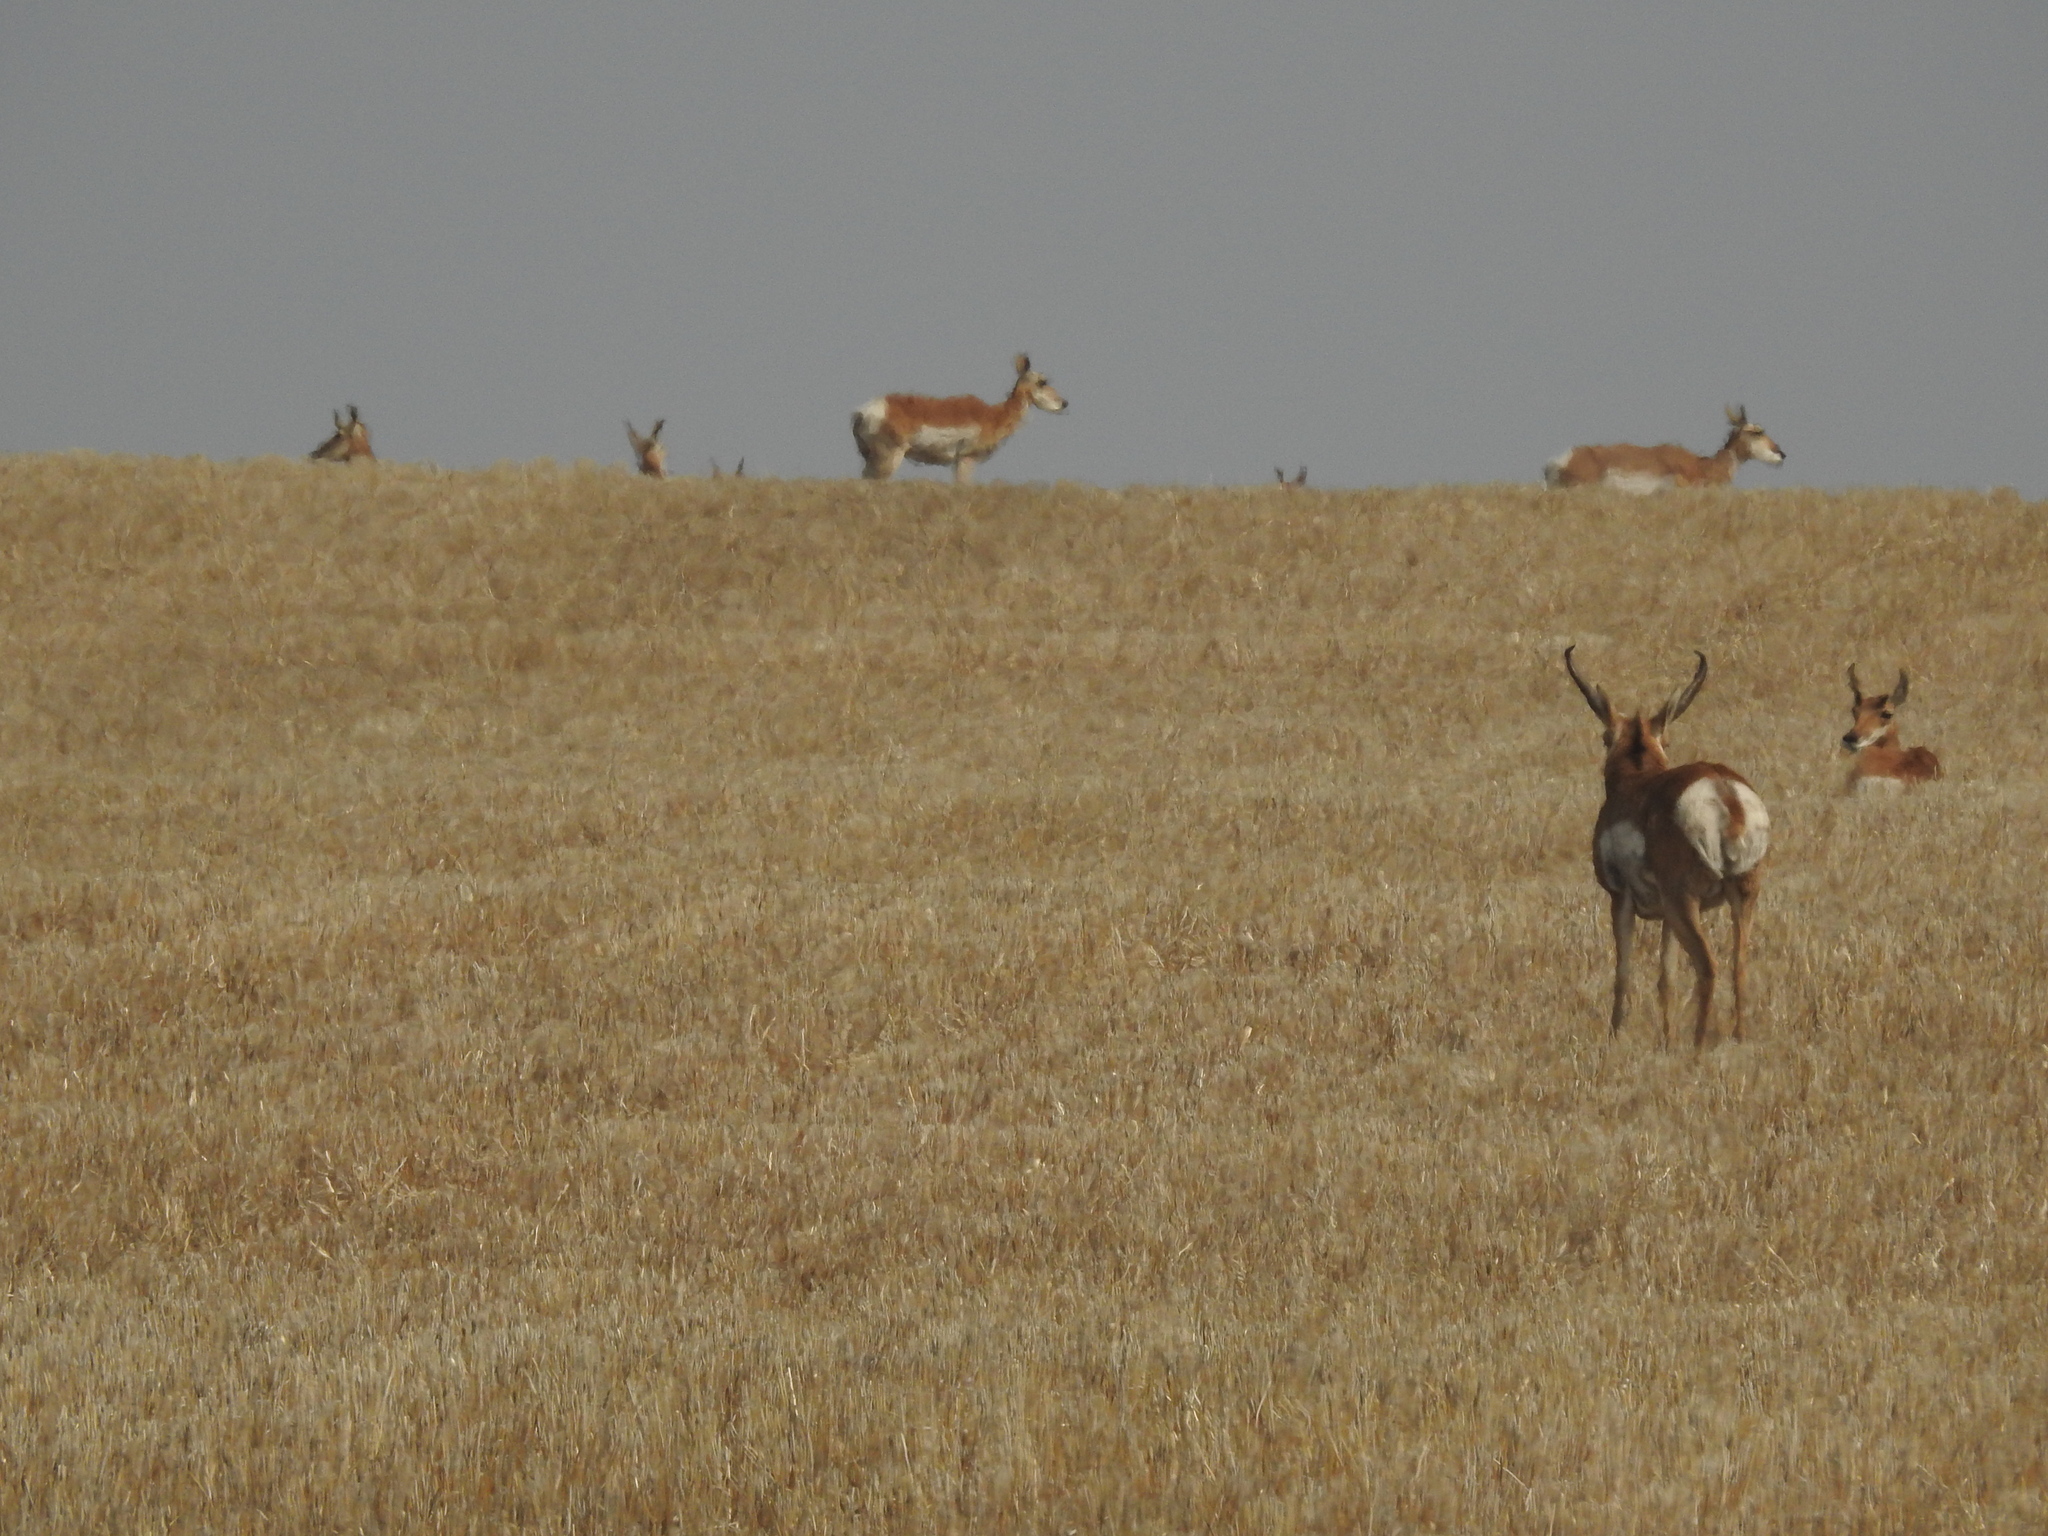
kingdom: Animalia
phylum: Chordata
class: Mammalia
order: Artiodactyla
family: Antilocapridae
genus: Antilocapra
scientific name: Antilocapra americana
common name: Pronghorn
